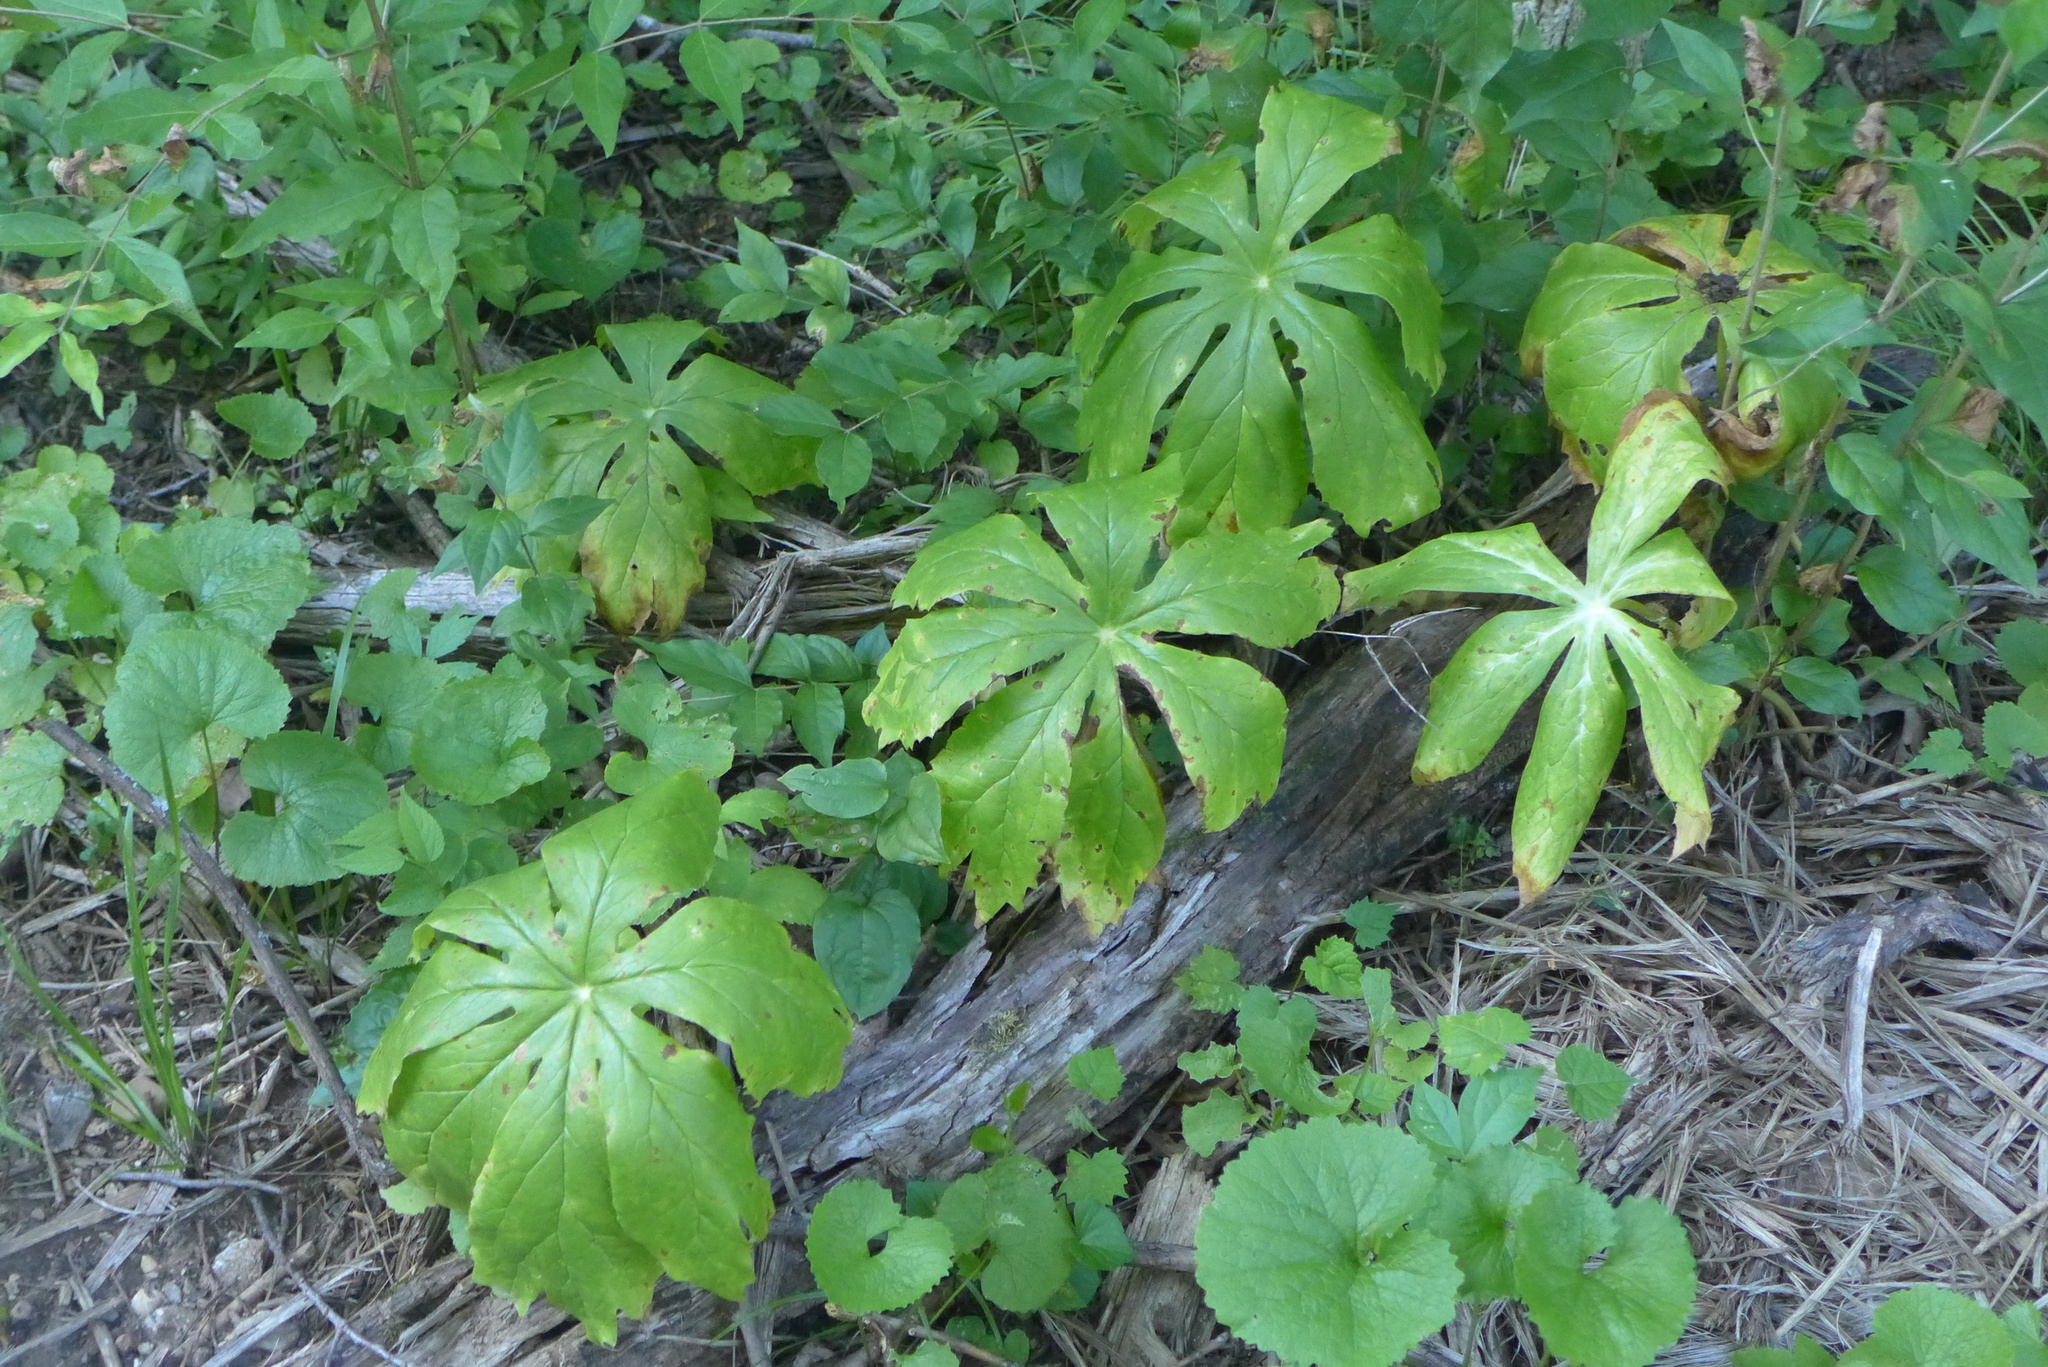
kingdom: Plantae
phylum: Tracheophyta
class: Magnoliopsida
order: Ranunculales
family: Berberidaceae
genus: Podophyllum
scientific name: Podophyllum peltatum
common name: Wild mandrake
